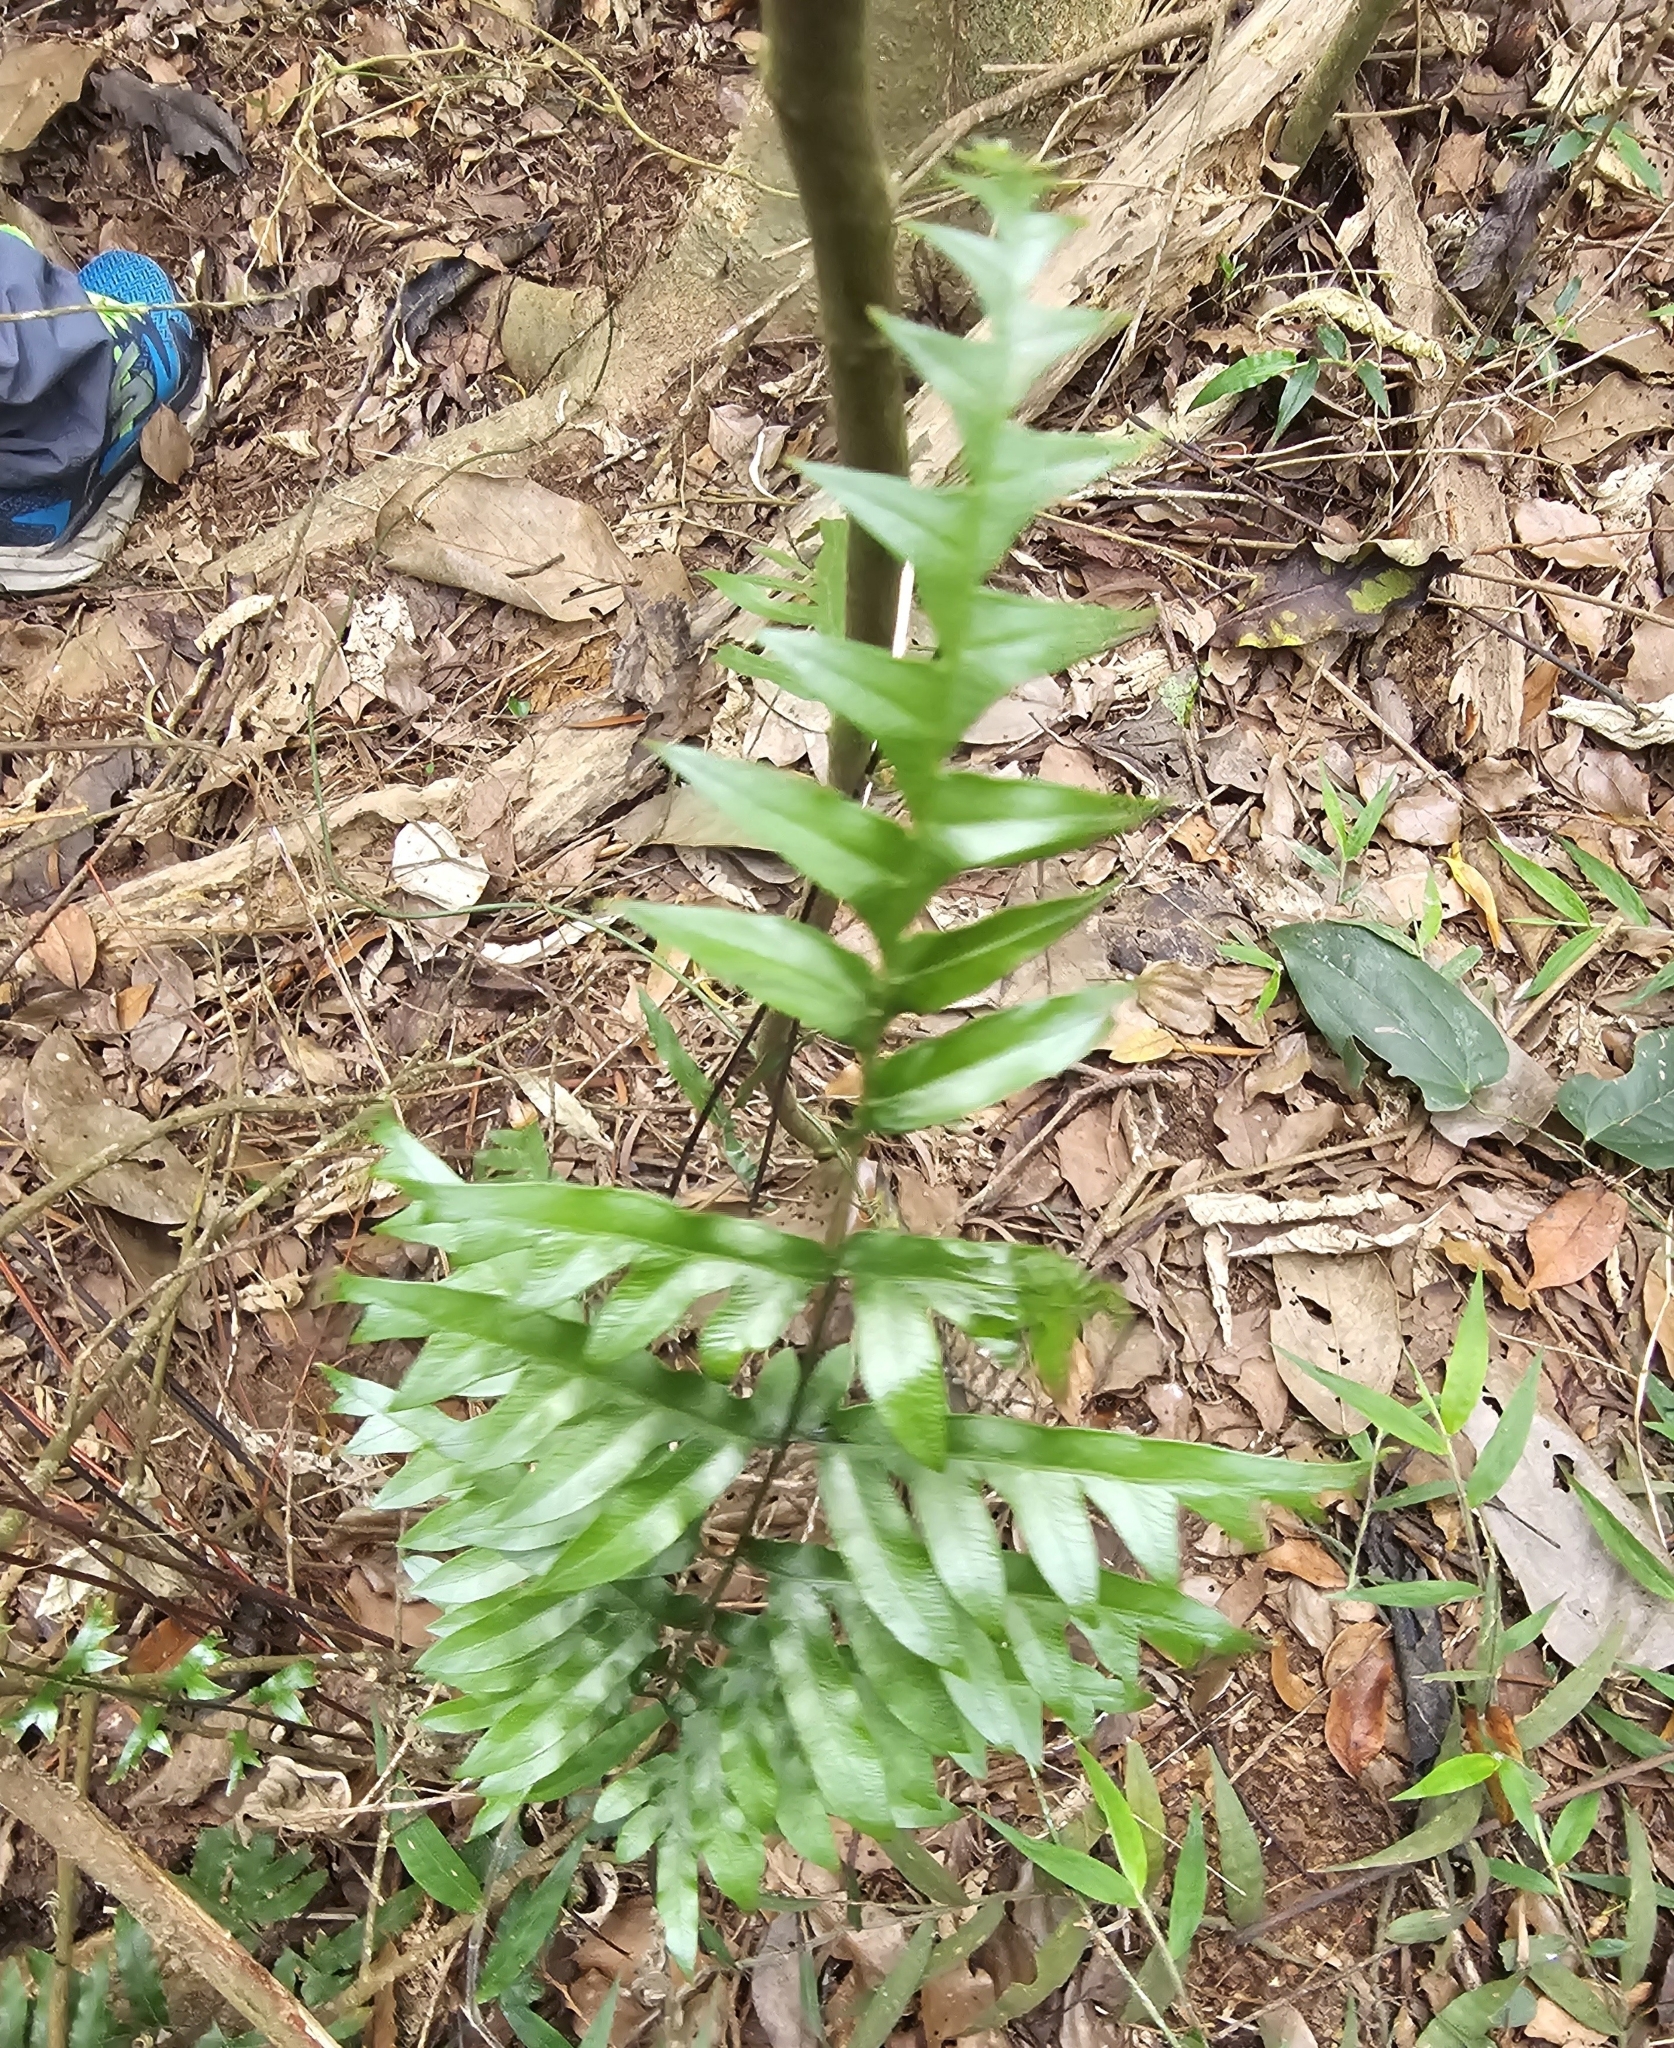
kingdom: Plantae
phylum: Tracheophyta
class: Polypodiopsida
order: Polypodiales
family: Pteridaceae
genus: Pteris
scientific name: Pteris semipinnata
